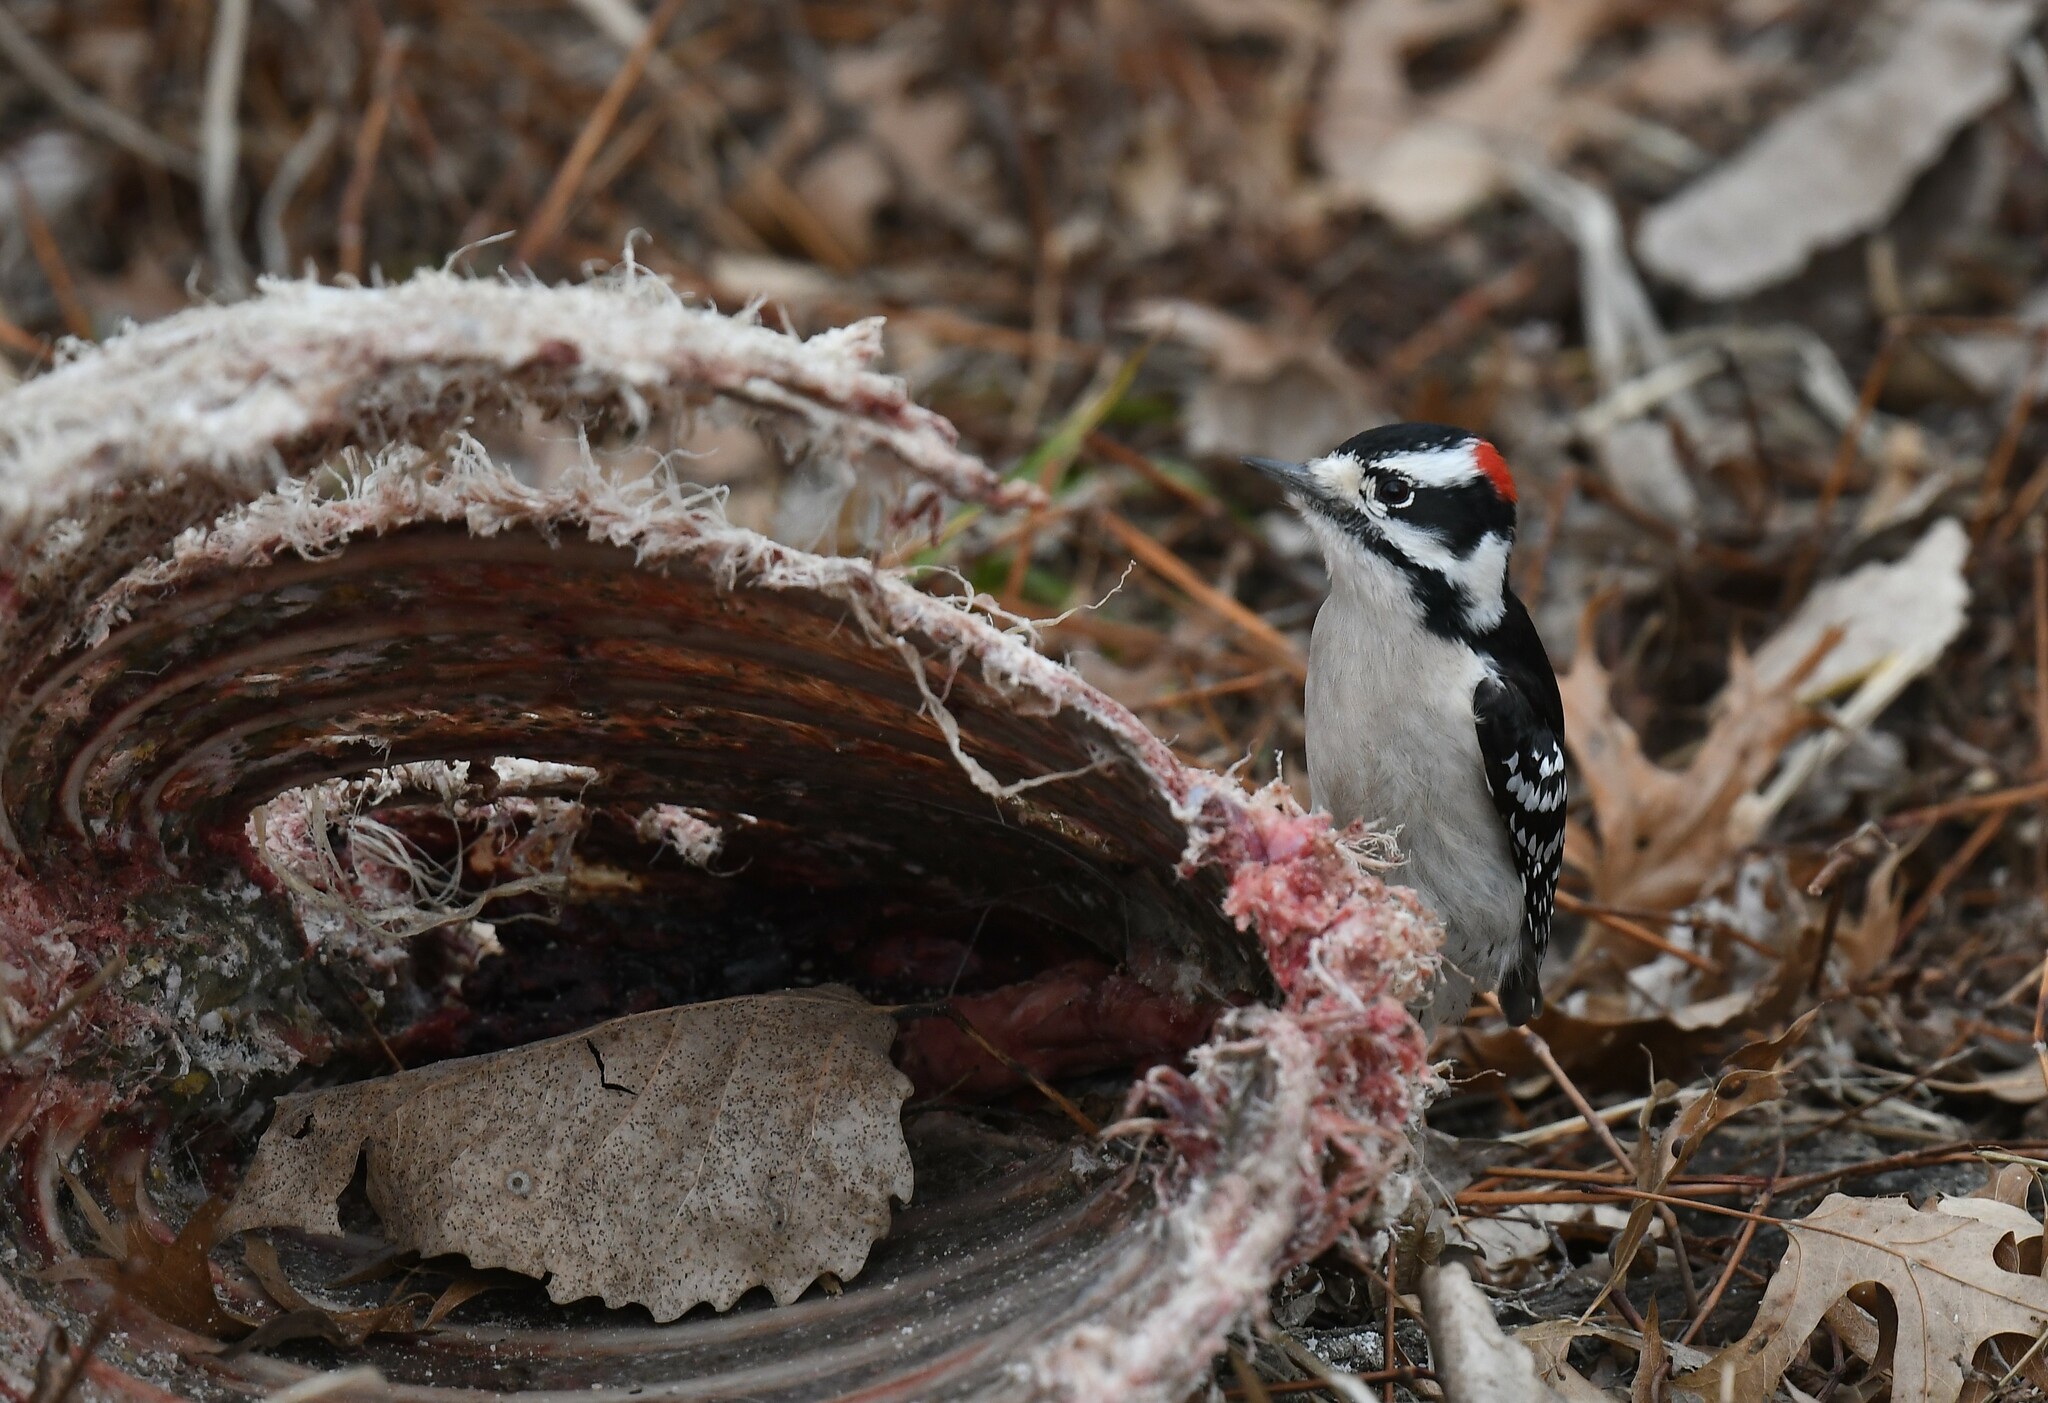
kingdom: Animalia
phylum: Chordata
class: Aves
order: Piciformes
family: Picidae
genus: Dryobates
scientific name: Dryobates pubescens
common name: Downy woodpecker
